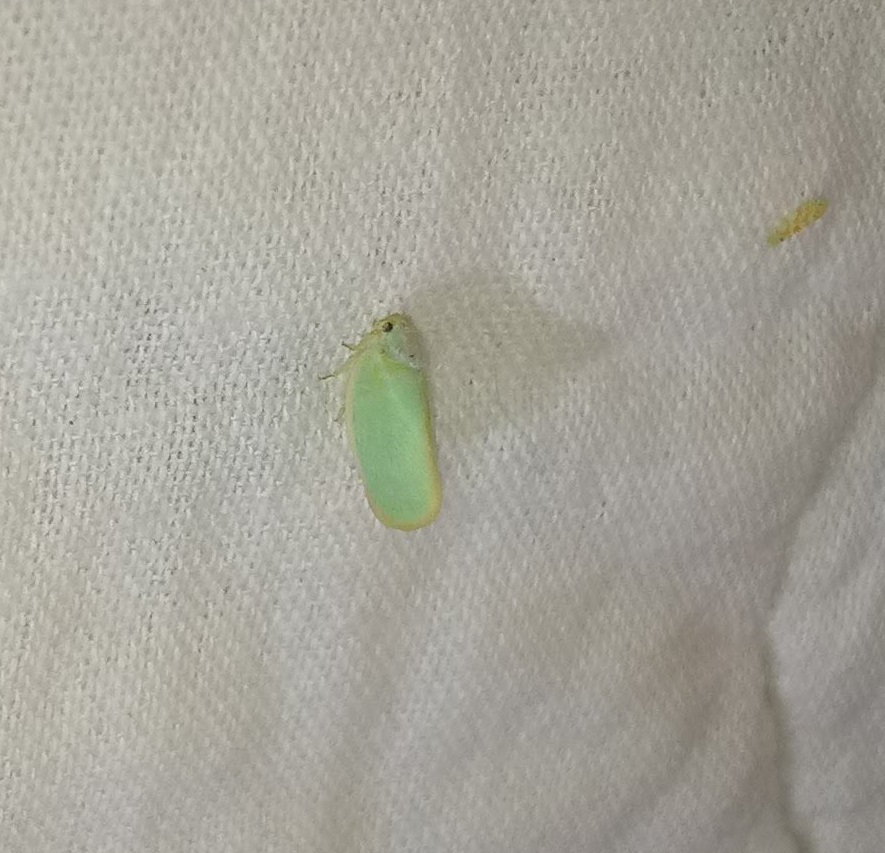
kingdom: Animalia
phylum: Arthropoda
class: Insecta
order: Hemiptera
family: Flatidae
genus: Ormenoides
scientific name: Ormenoides venusta
